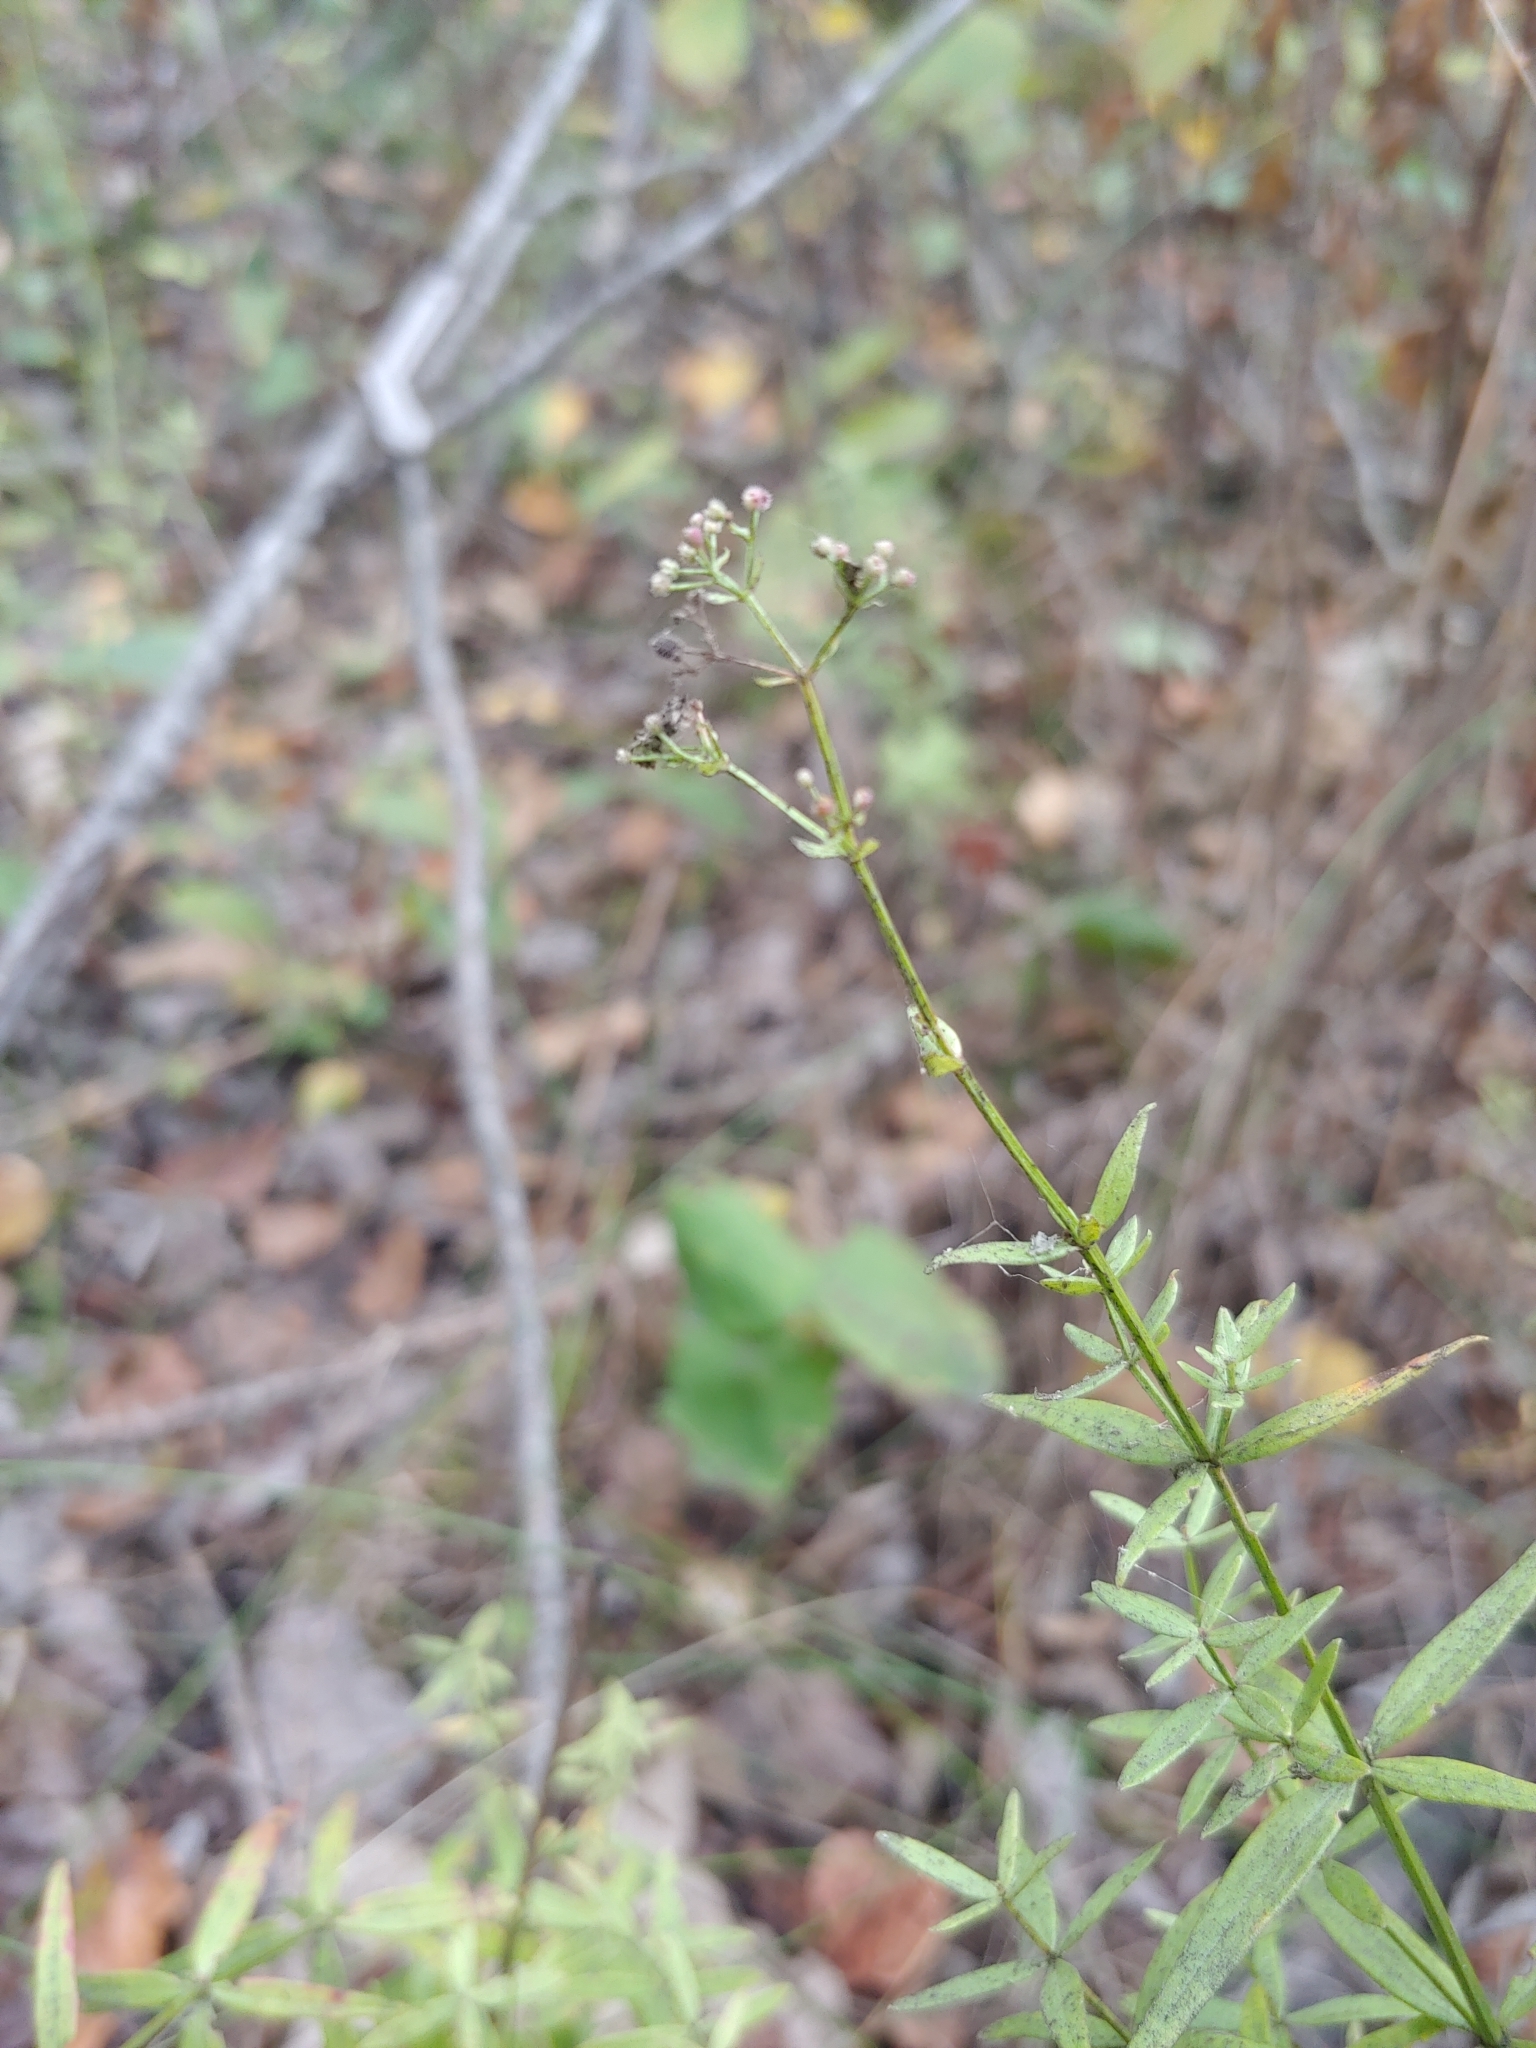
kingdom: Plantae
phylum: Tracheophyta
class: Magnoliopsida
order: Gentianales
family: Rubiaceae
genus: Galium
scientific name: Galium boreale
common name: Northern bedstraw
